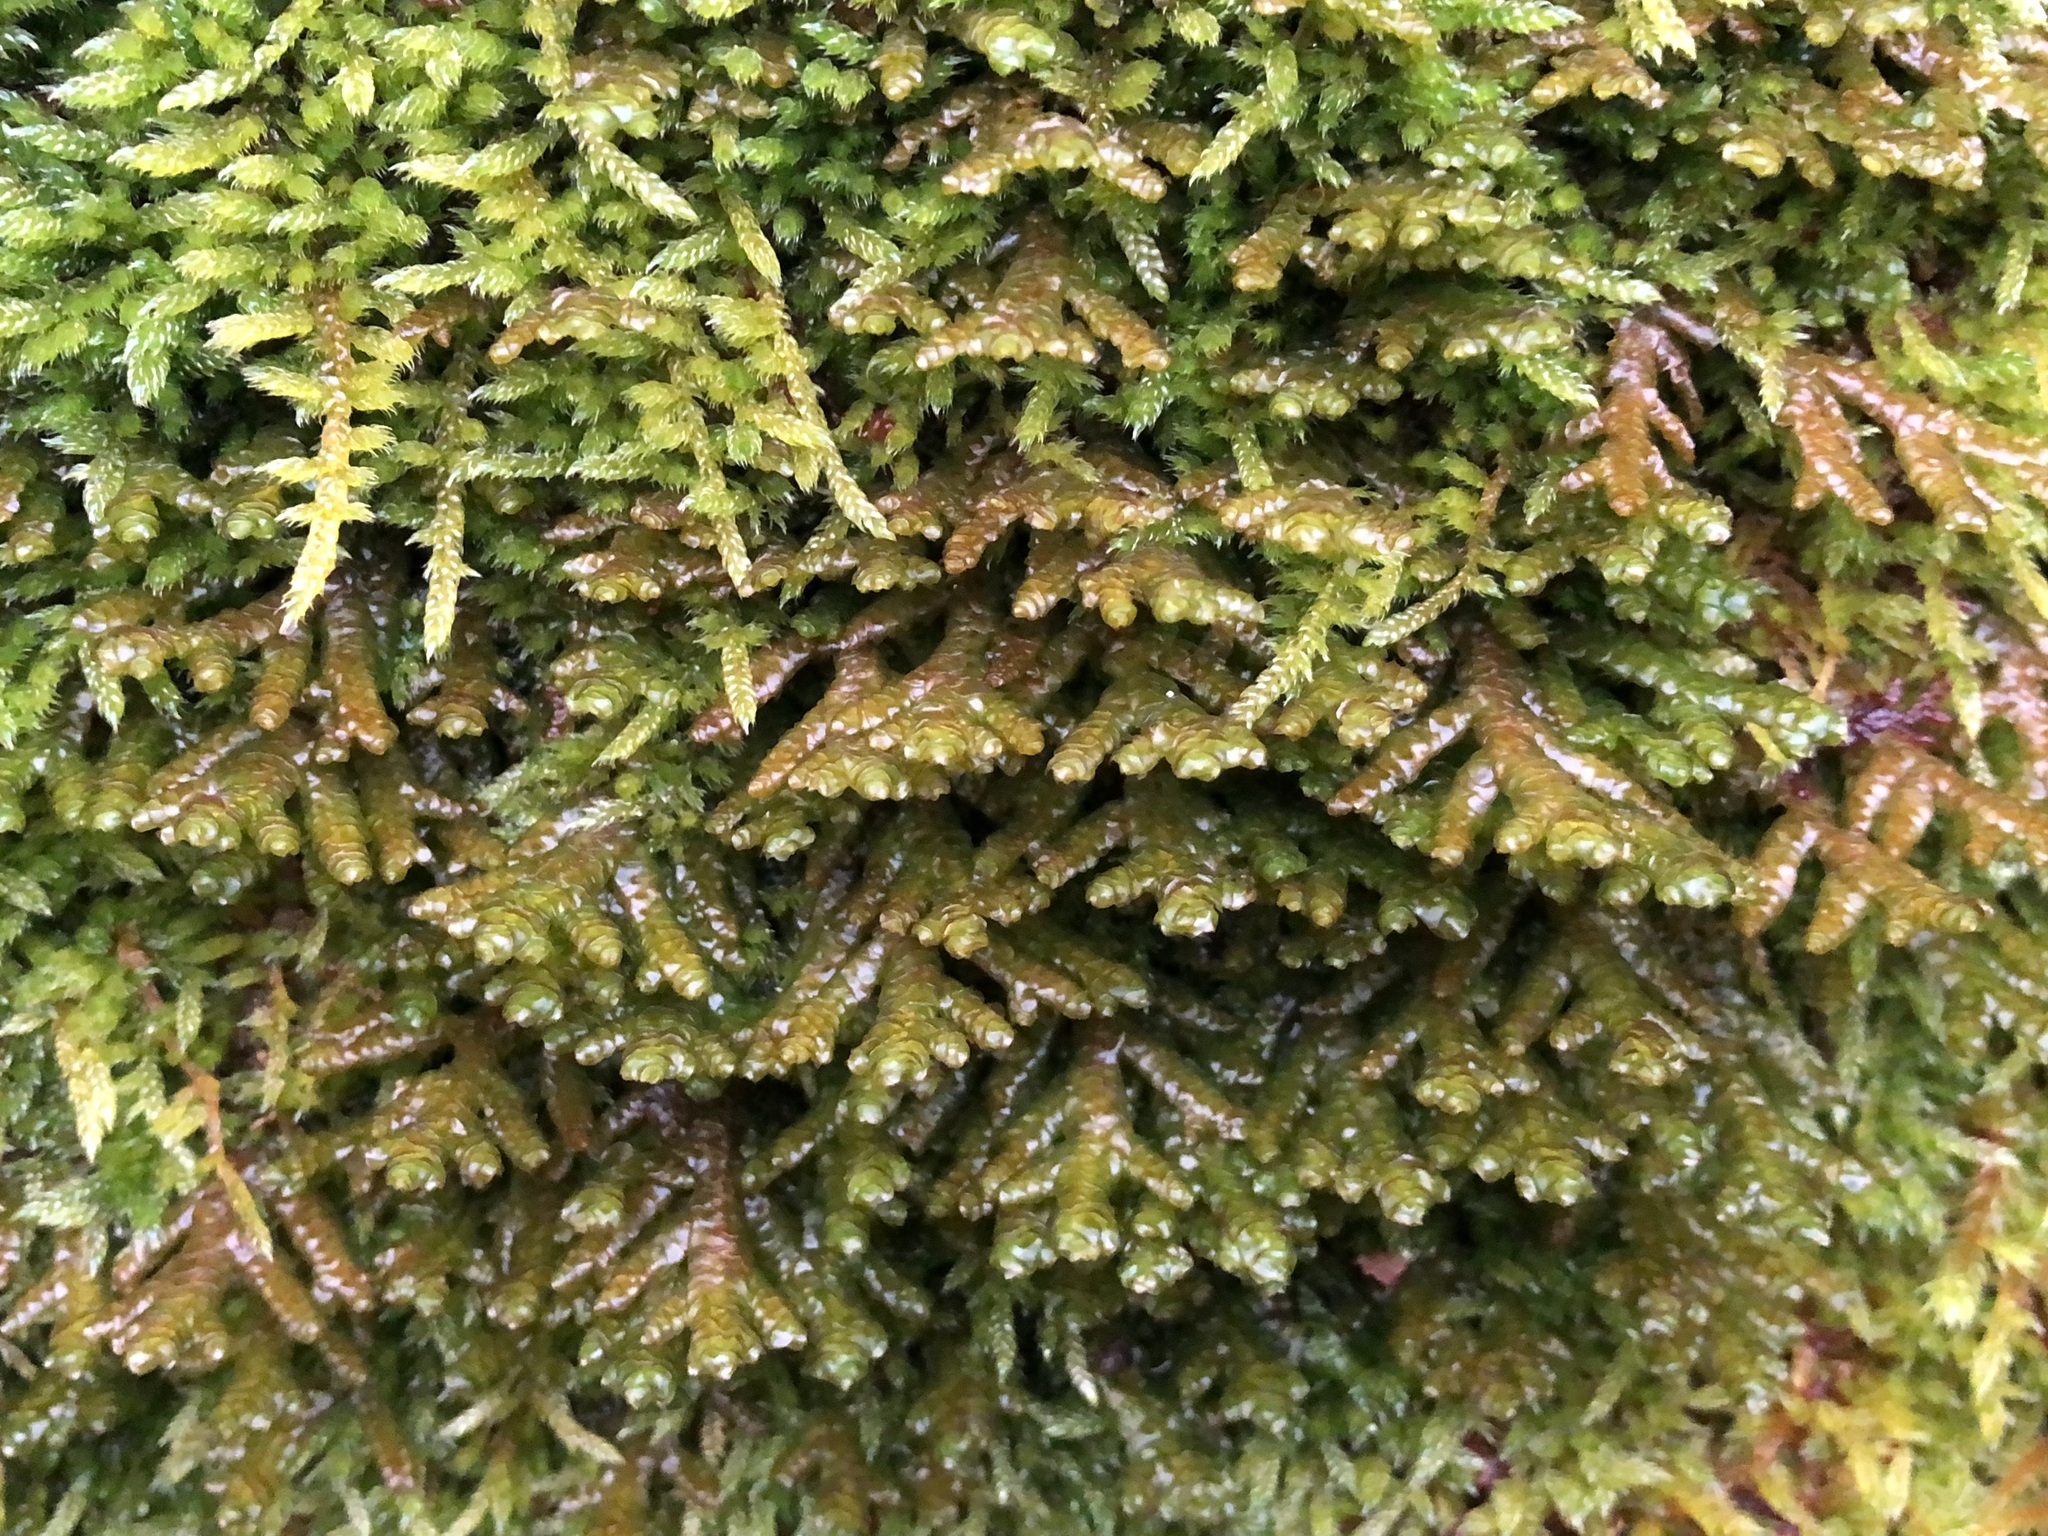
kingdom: Plantae
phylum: Marchantiophyta
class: Jungermanniopsida
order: Porellales
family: Porellaceae
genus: Porella
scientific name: Porella platyphylla
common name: Wall scalewort
